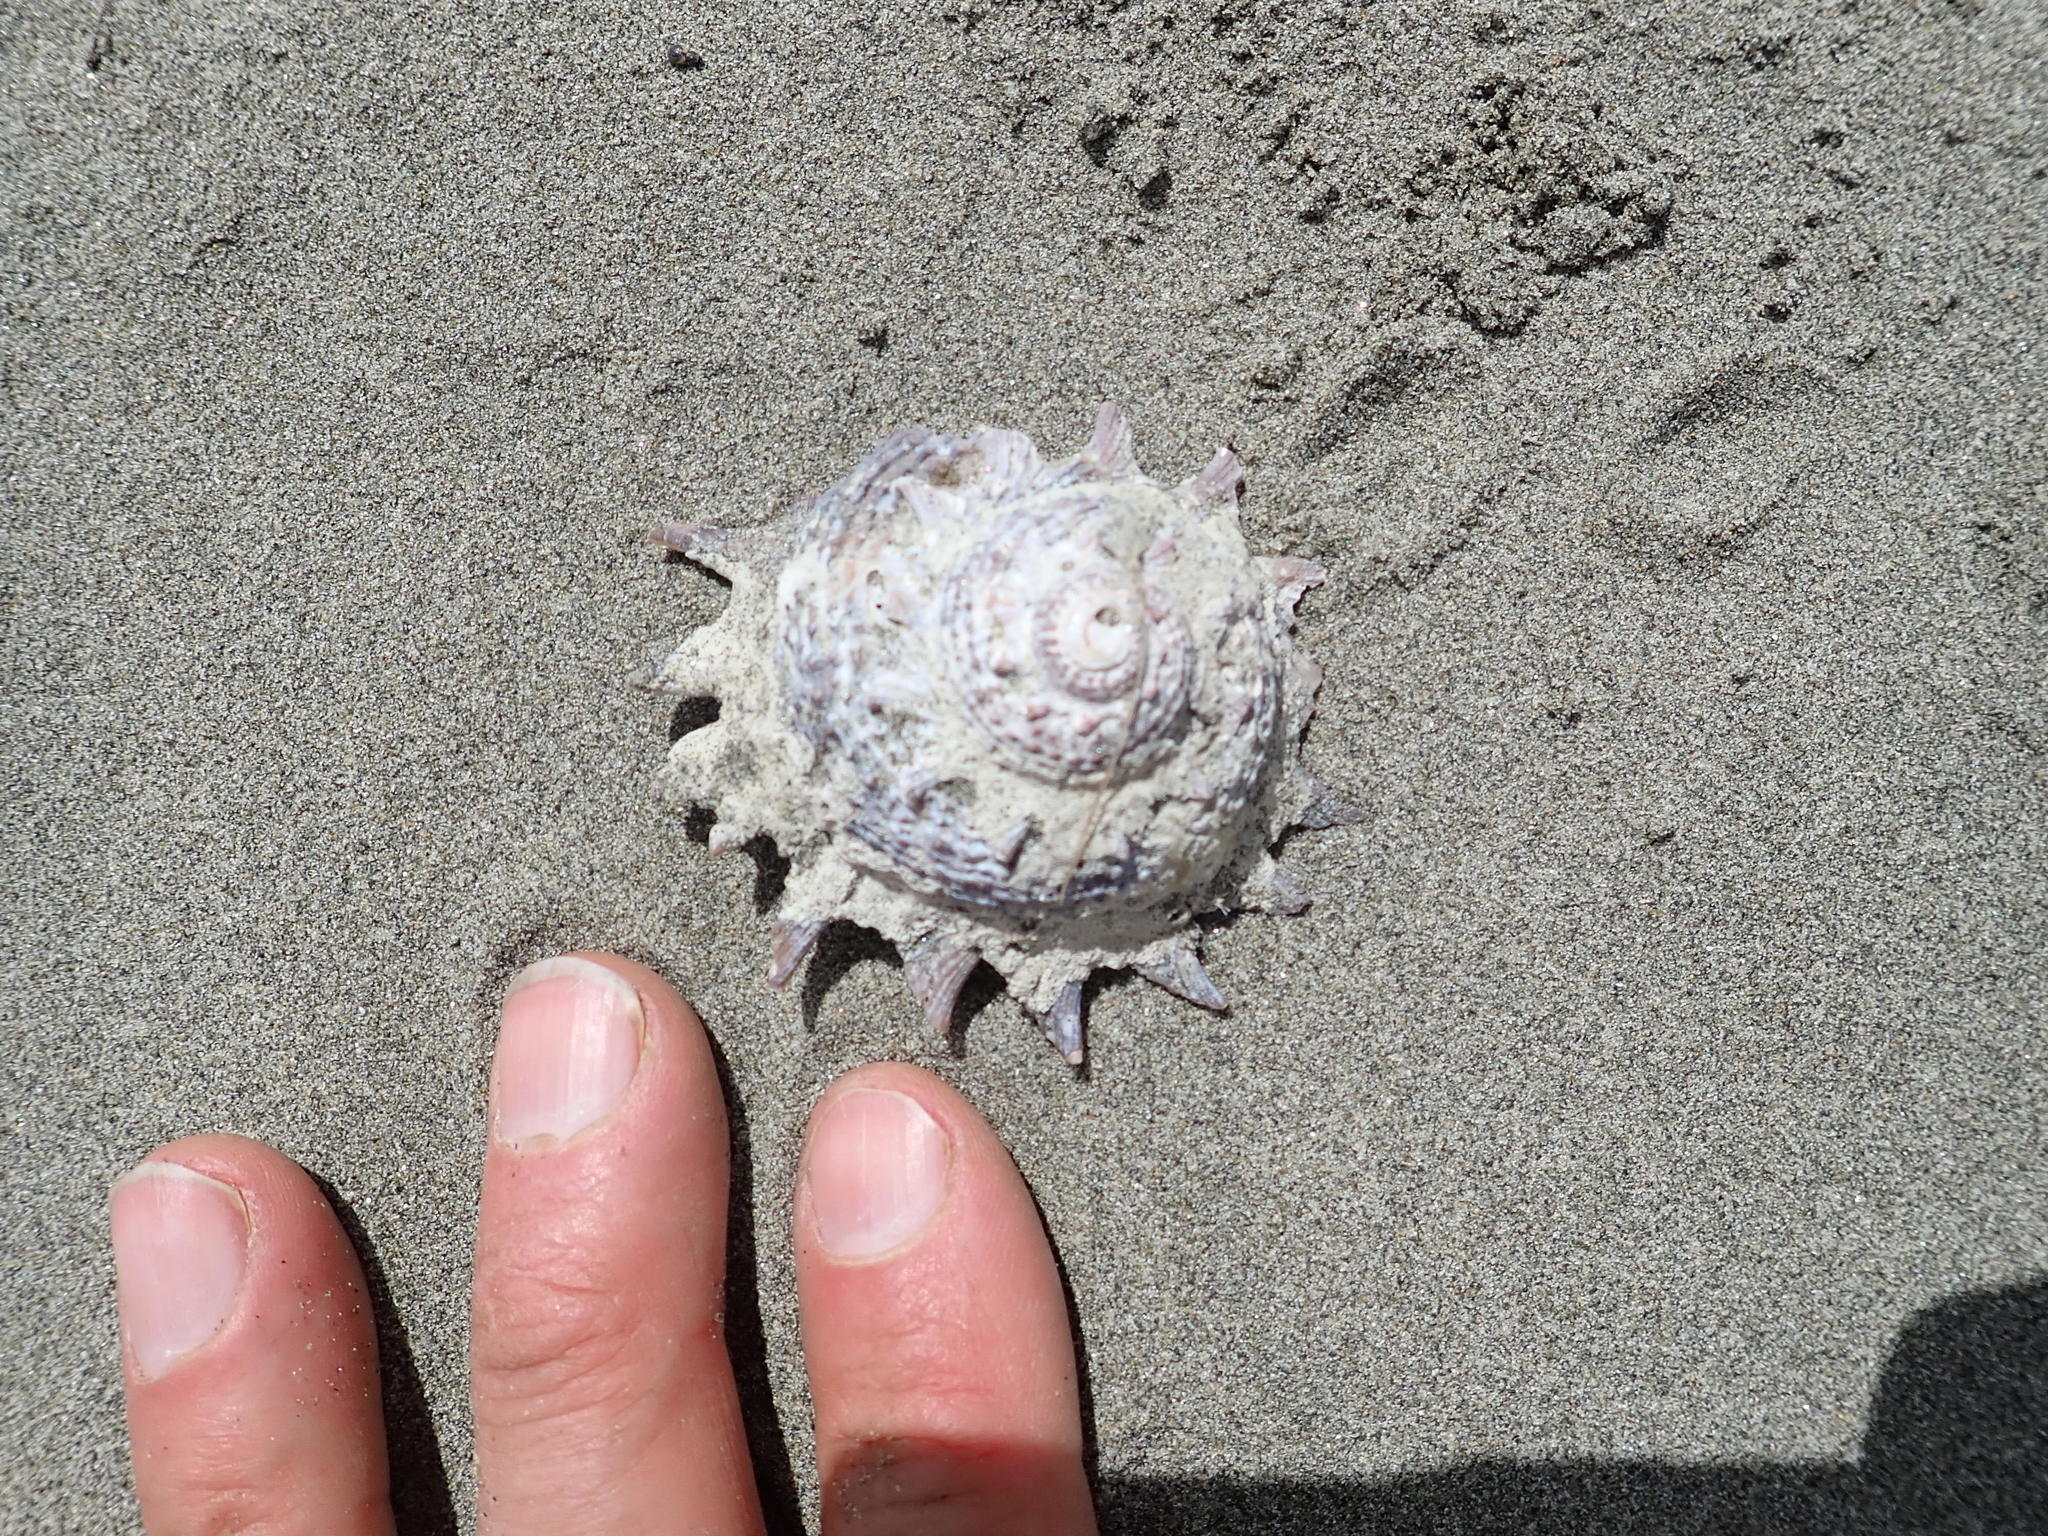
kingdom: Animalia
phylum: Mollusca
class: Gastropoda
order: Trochida
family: Turbinidae
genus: Astraea
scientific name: Astraea heliotropium
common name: Sun shell
